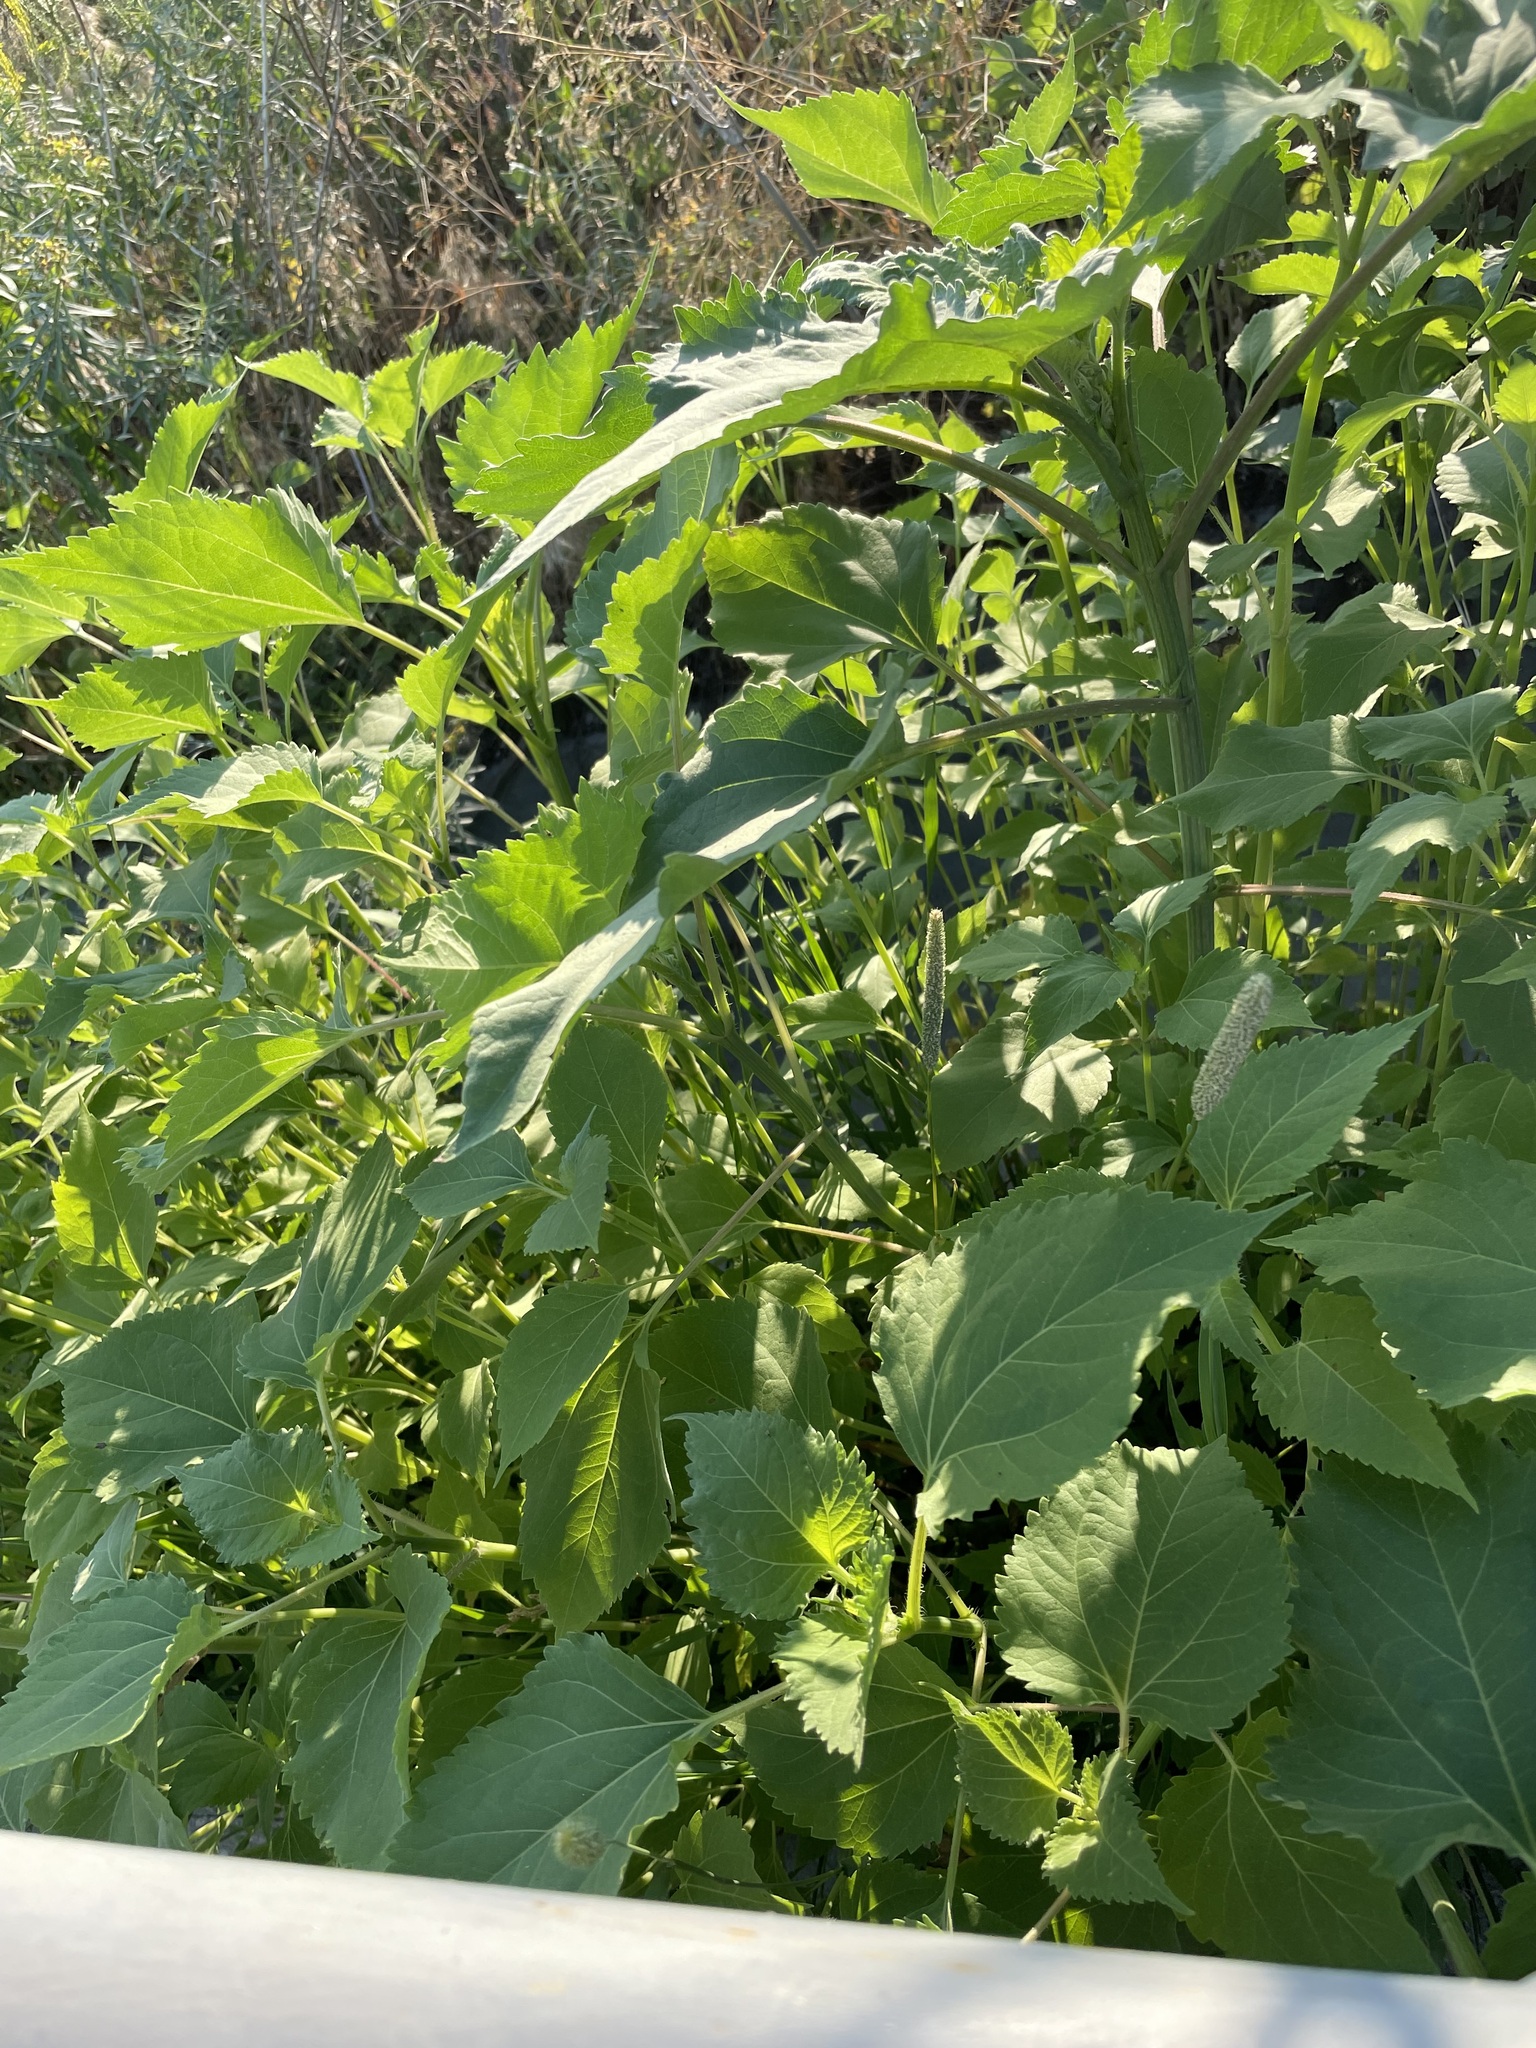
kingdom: Plantae
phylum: Tracheophyta
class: Magnoliopsida
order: Asterales
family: Asteraceae
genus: Cyclachaena
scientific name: Cyclachaena xanthiifolia
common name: Giant sumpweed
